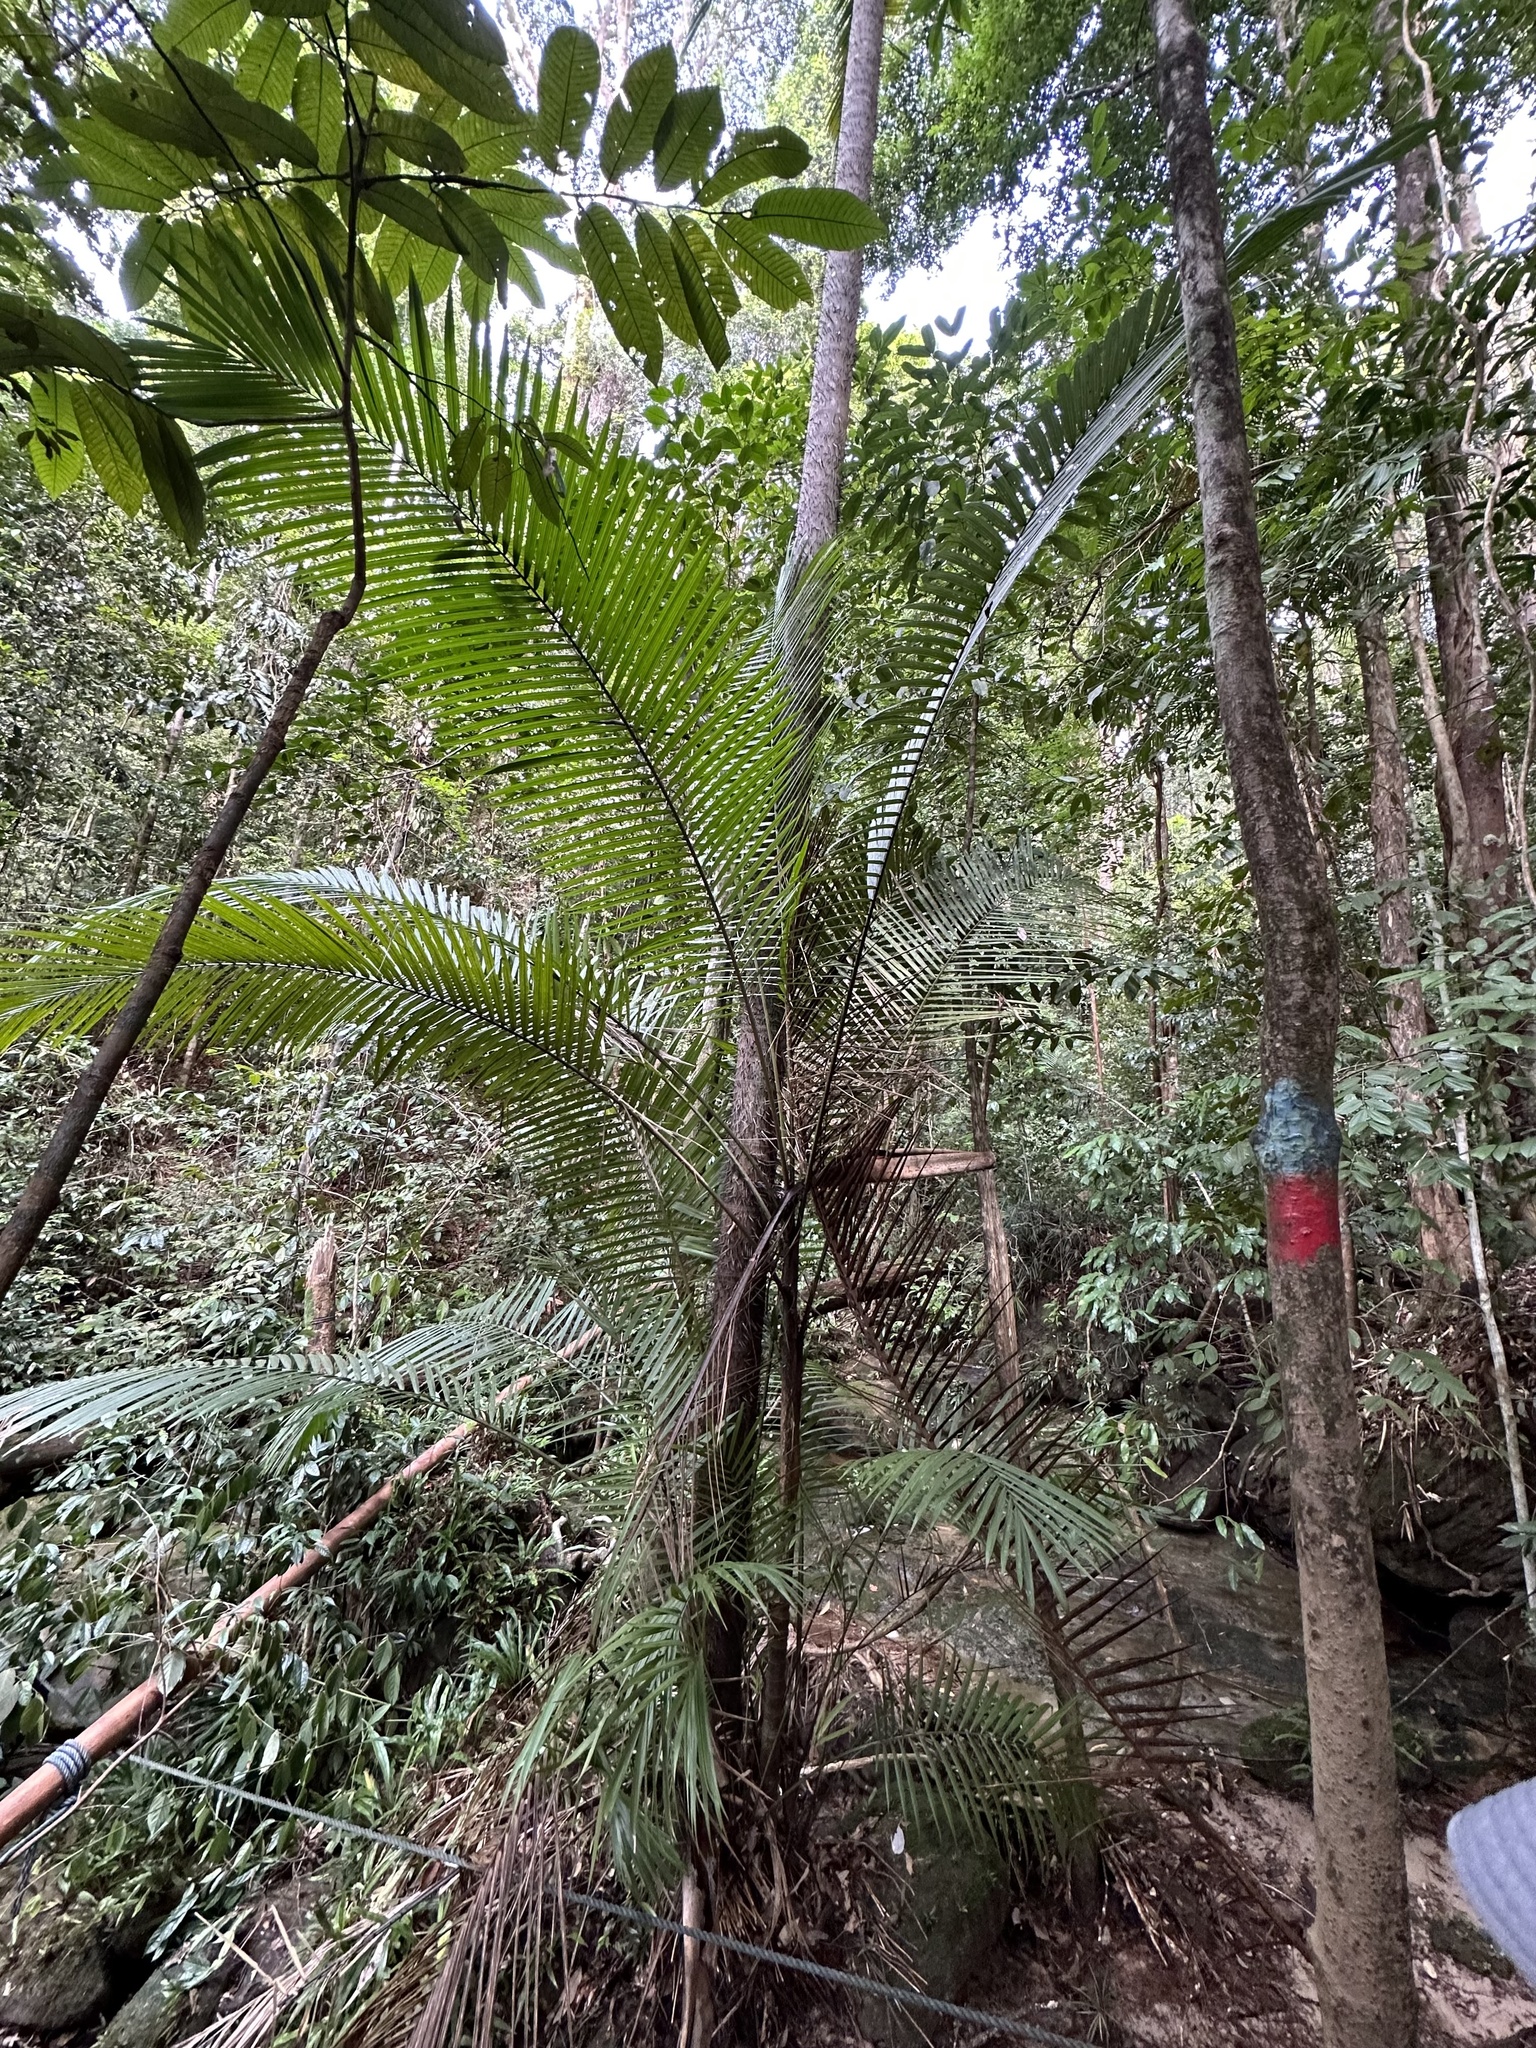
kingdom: Plantae
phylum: Tracheophyta
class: Liliopsida
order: Arecales
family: Arecaceae
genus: Oncosperma
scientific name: Oncosperma tigillarium
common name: Nibong
